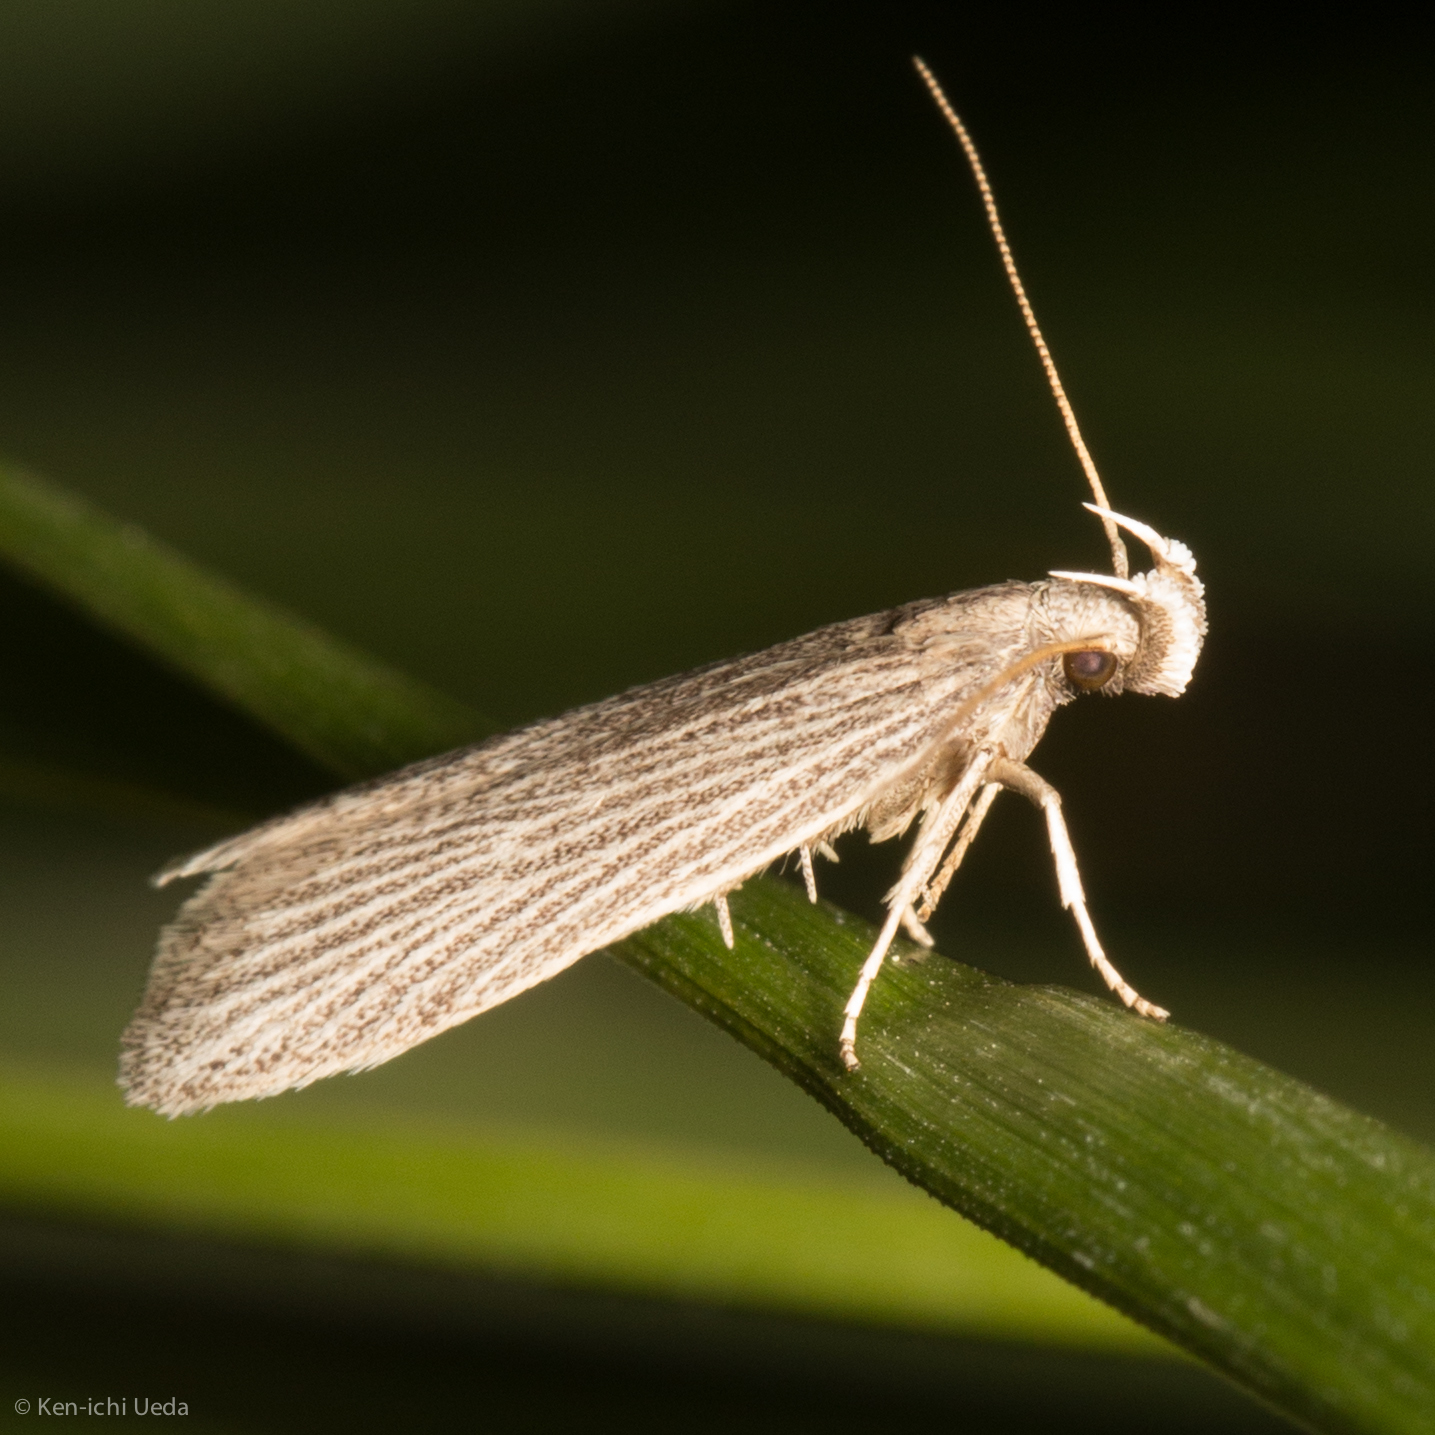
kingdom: Animalia
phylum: Arthropoda
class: Insecta
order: Lepidoptera
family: Gelechiidae
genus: Chionodes
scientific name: Chionodes figurella
